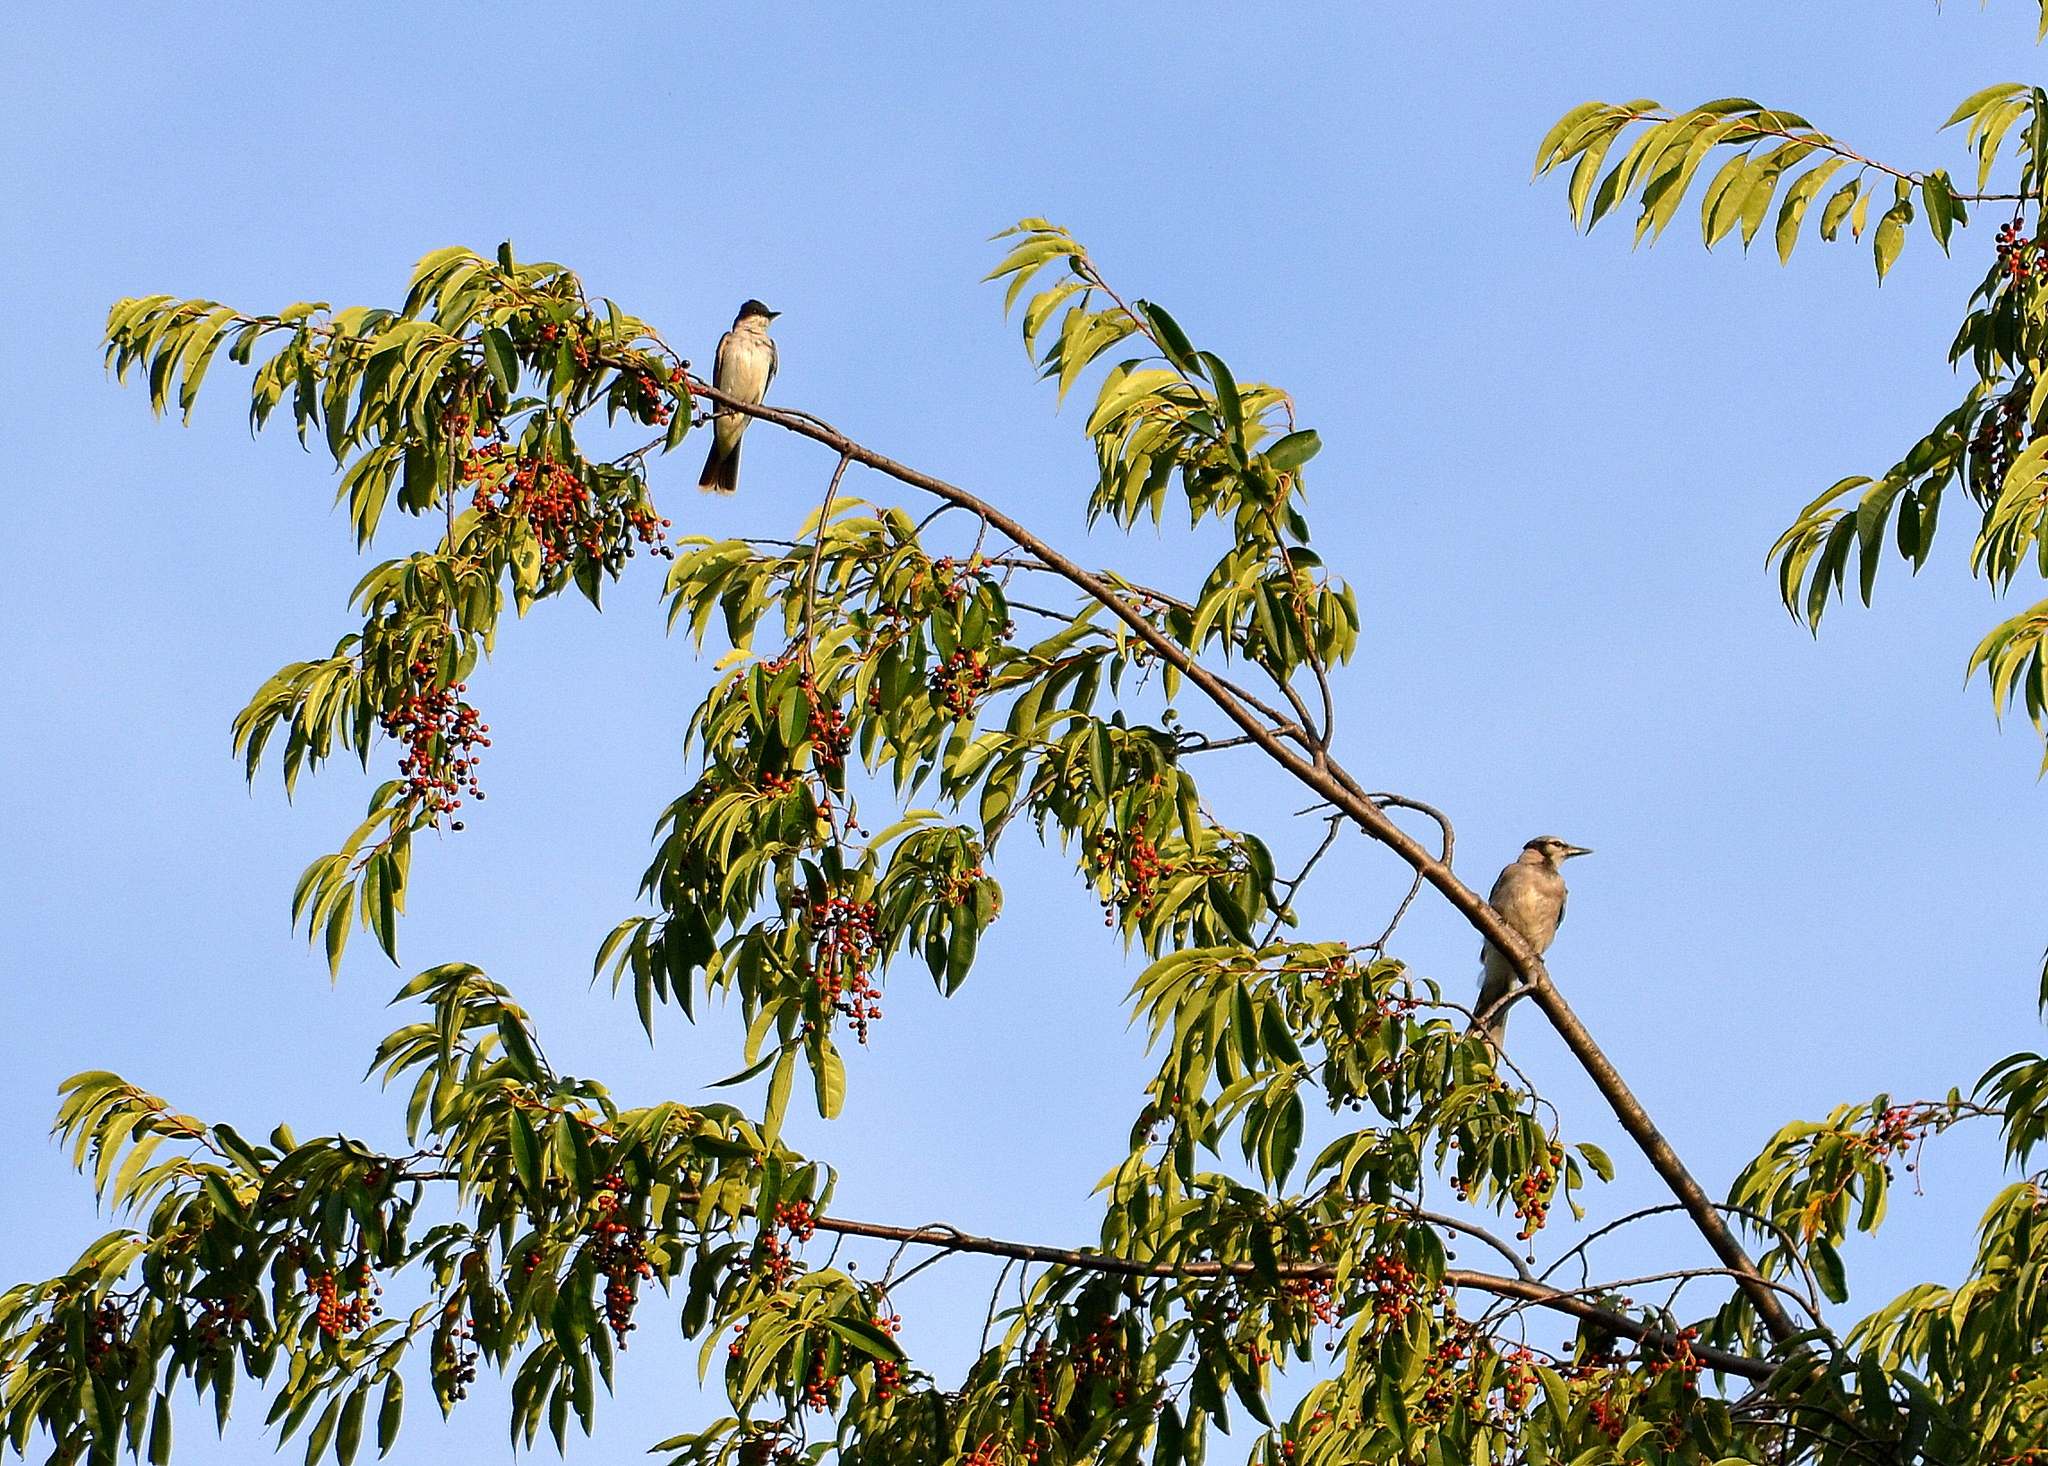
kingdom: Animalia
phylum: Chordata
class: Aves
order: Passeriformes
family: Tyrannidae
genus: Tyrannus
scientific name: Tyrannus tyrannus
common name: Eastern kingbird
